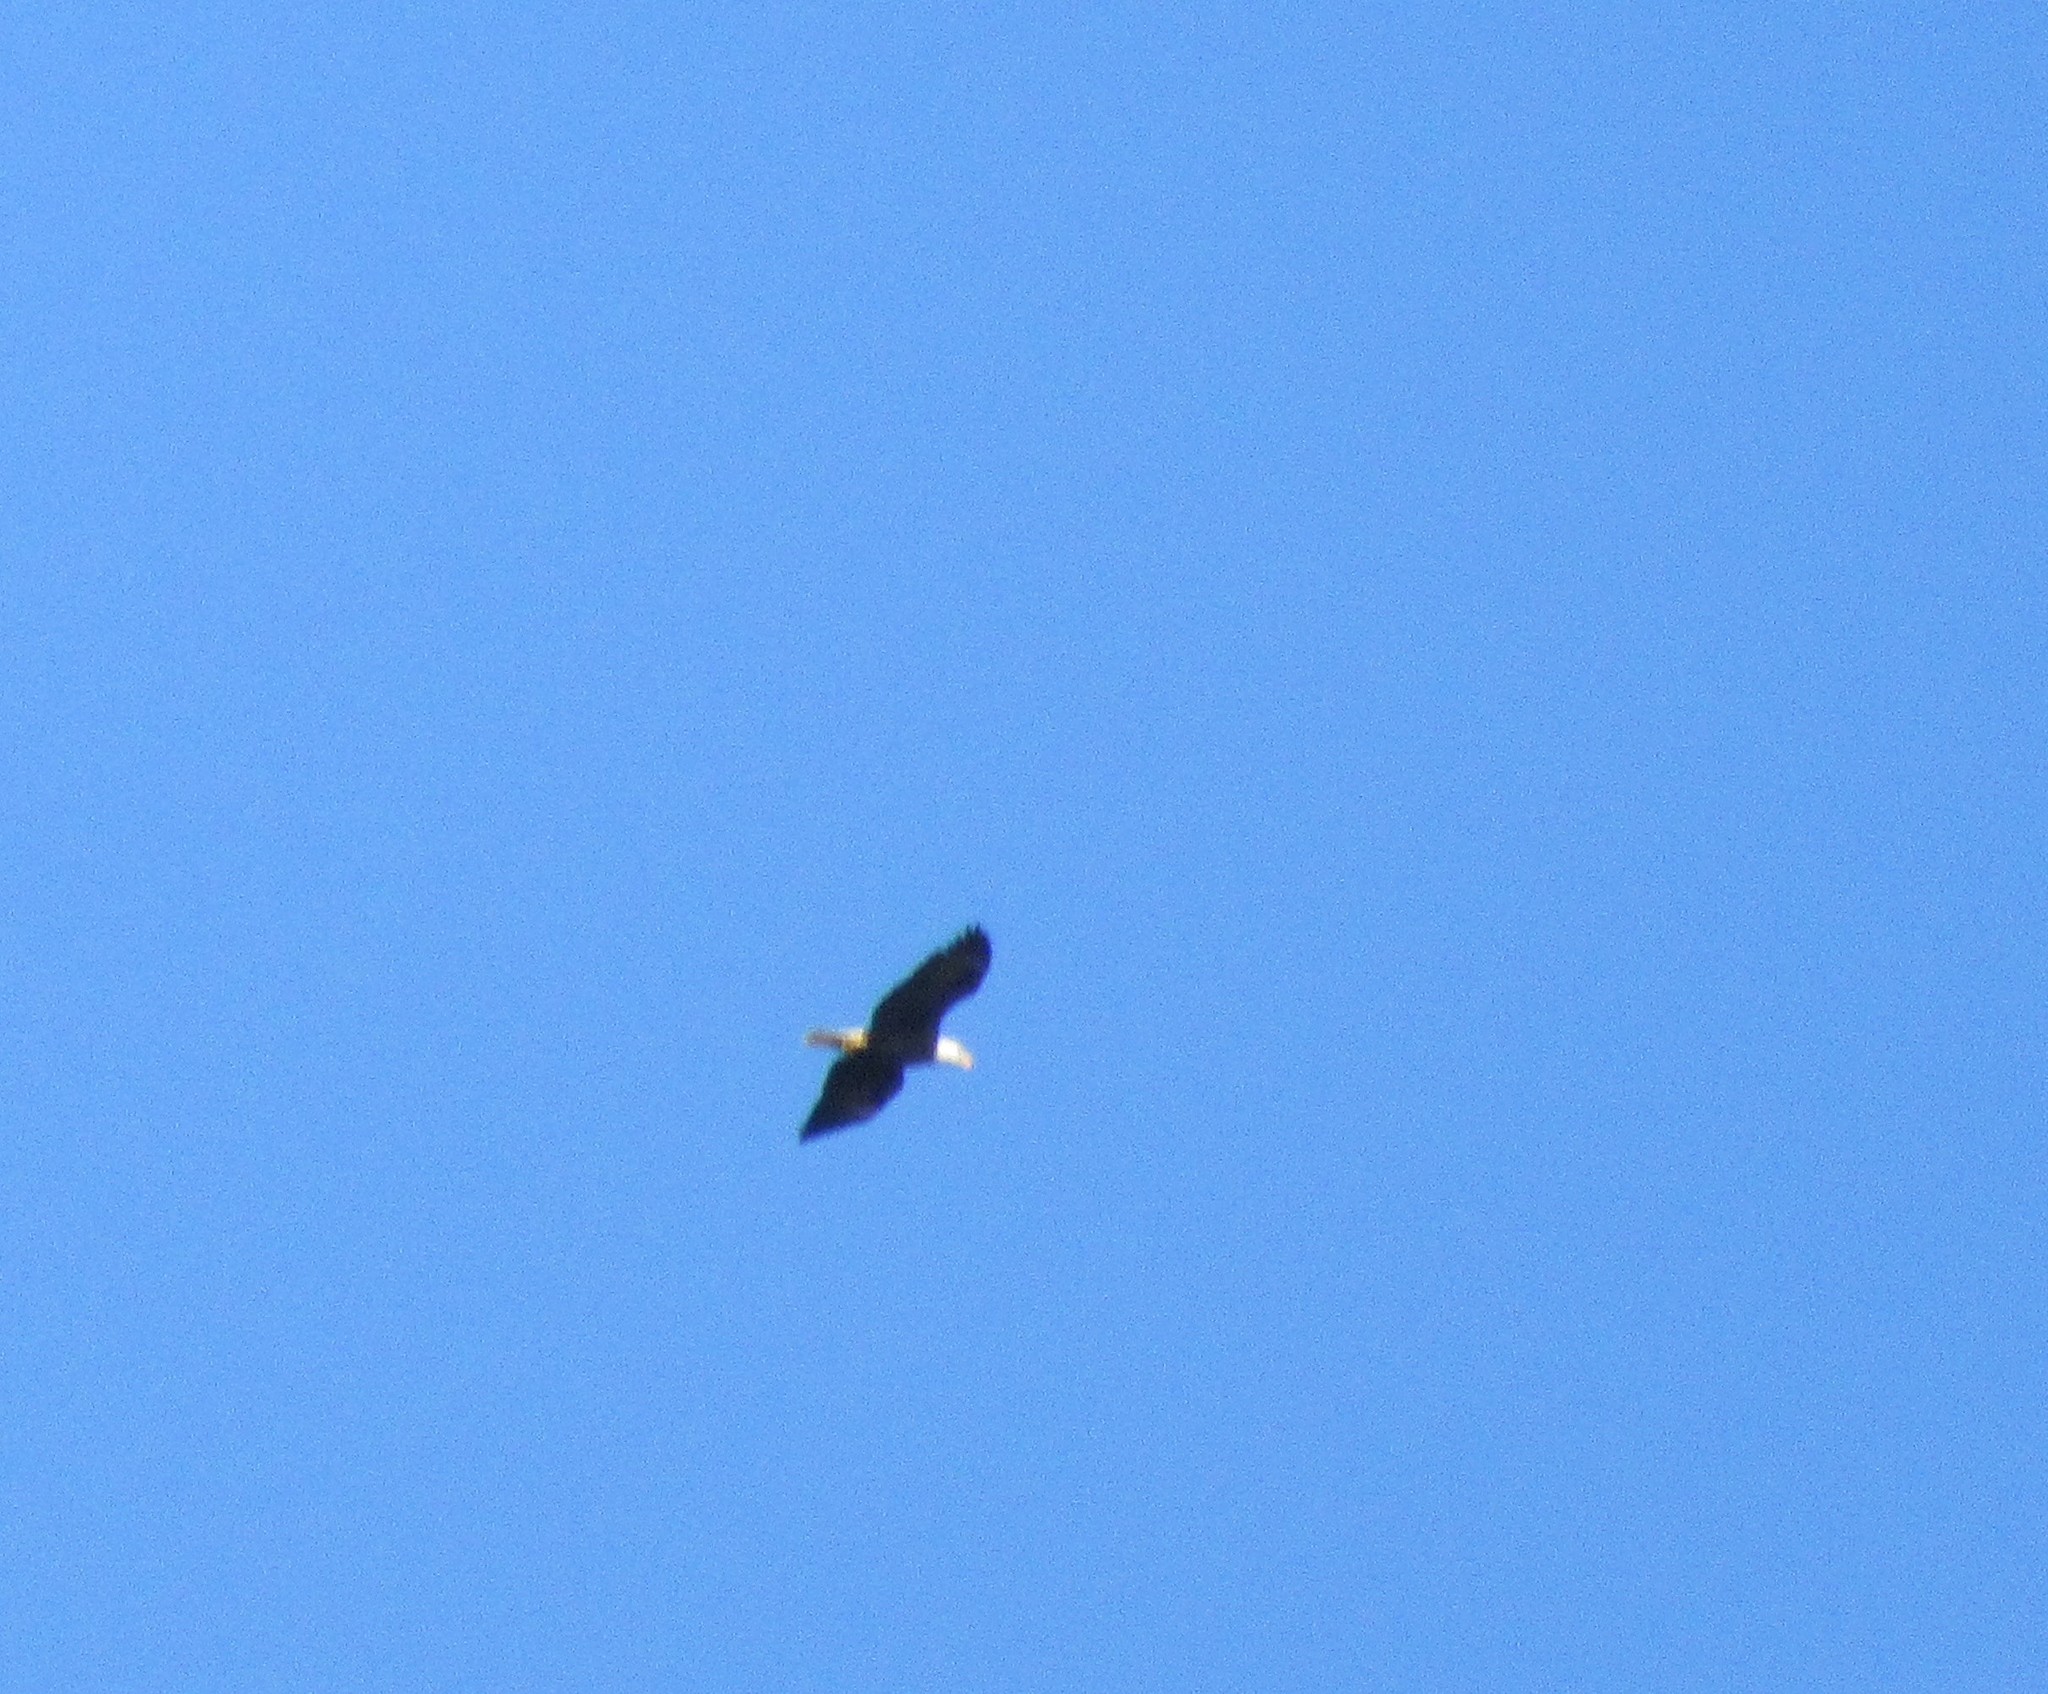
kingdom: Animalia
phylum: Chordata
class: Aves
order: Accipitriformes
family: Accipitridae
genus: Haliaeetus
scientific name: Haliaeetus leucocephalus
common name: Bald eagle
